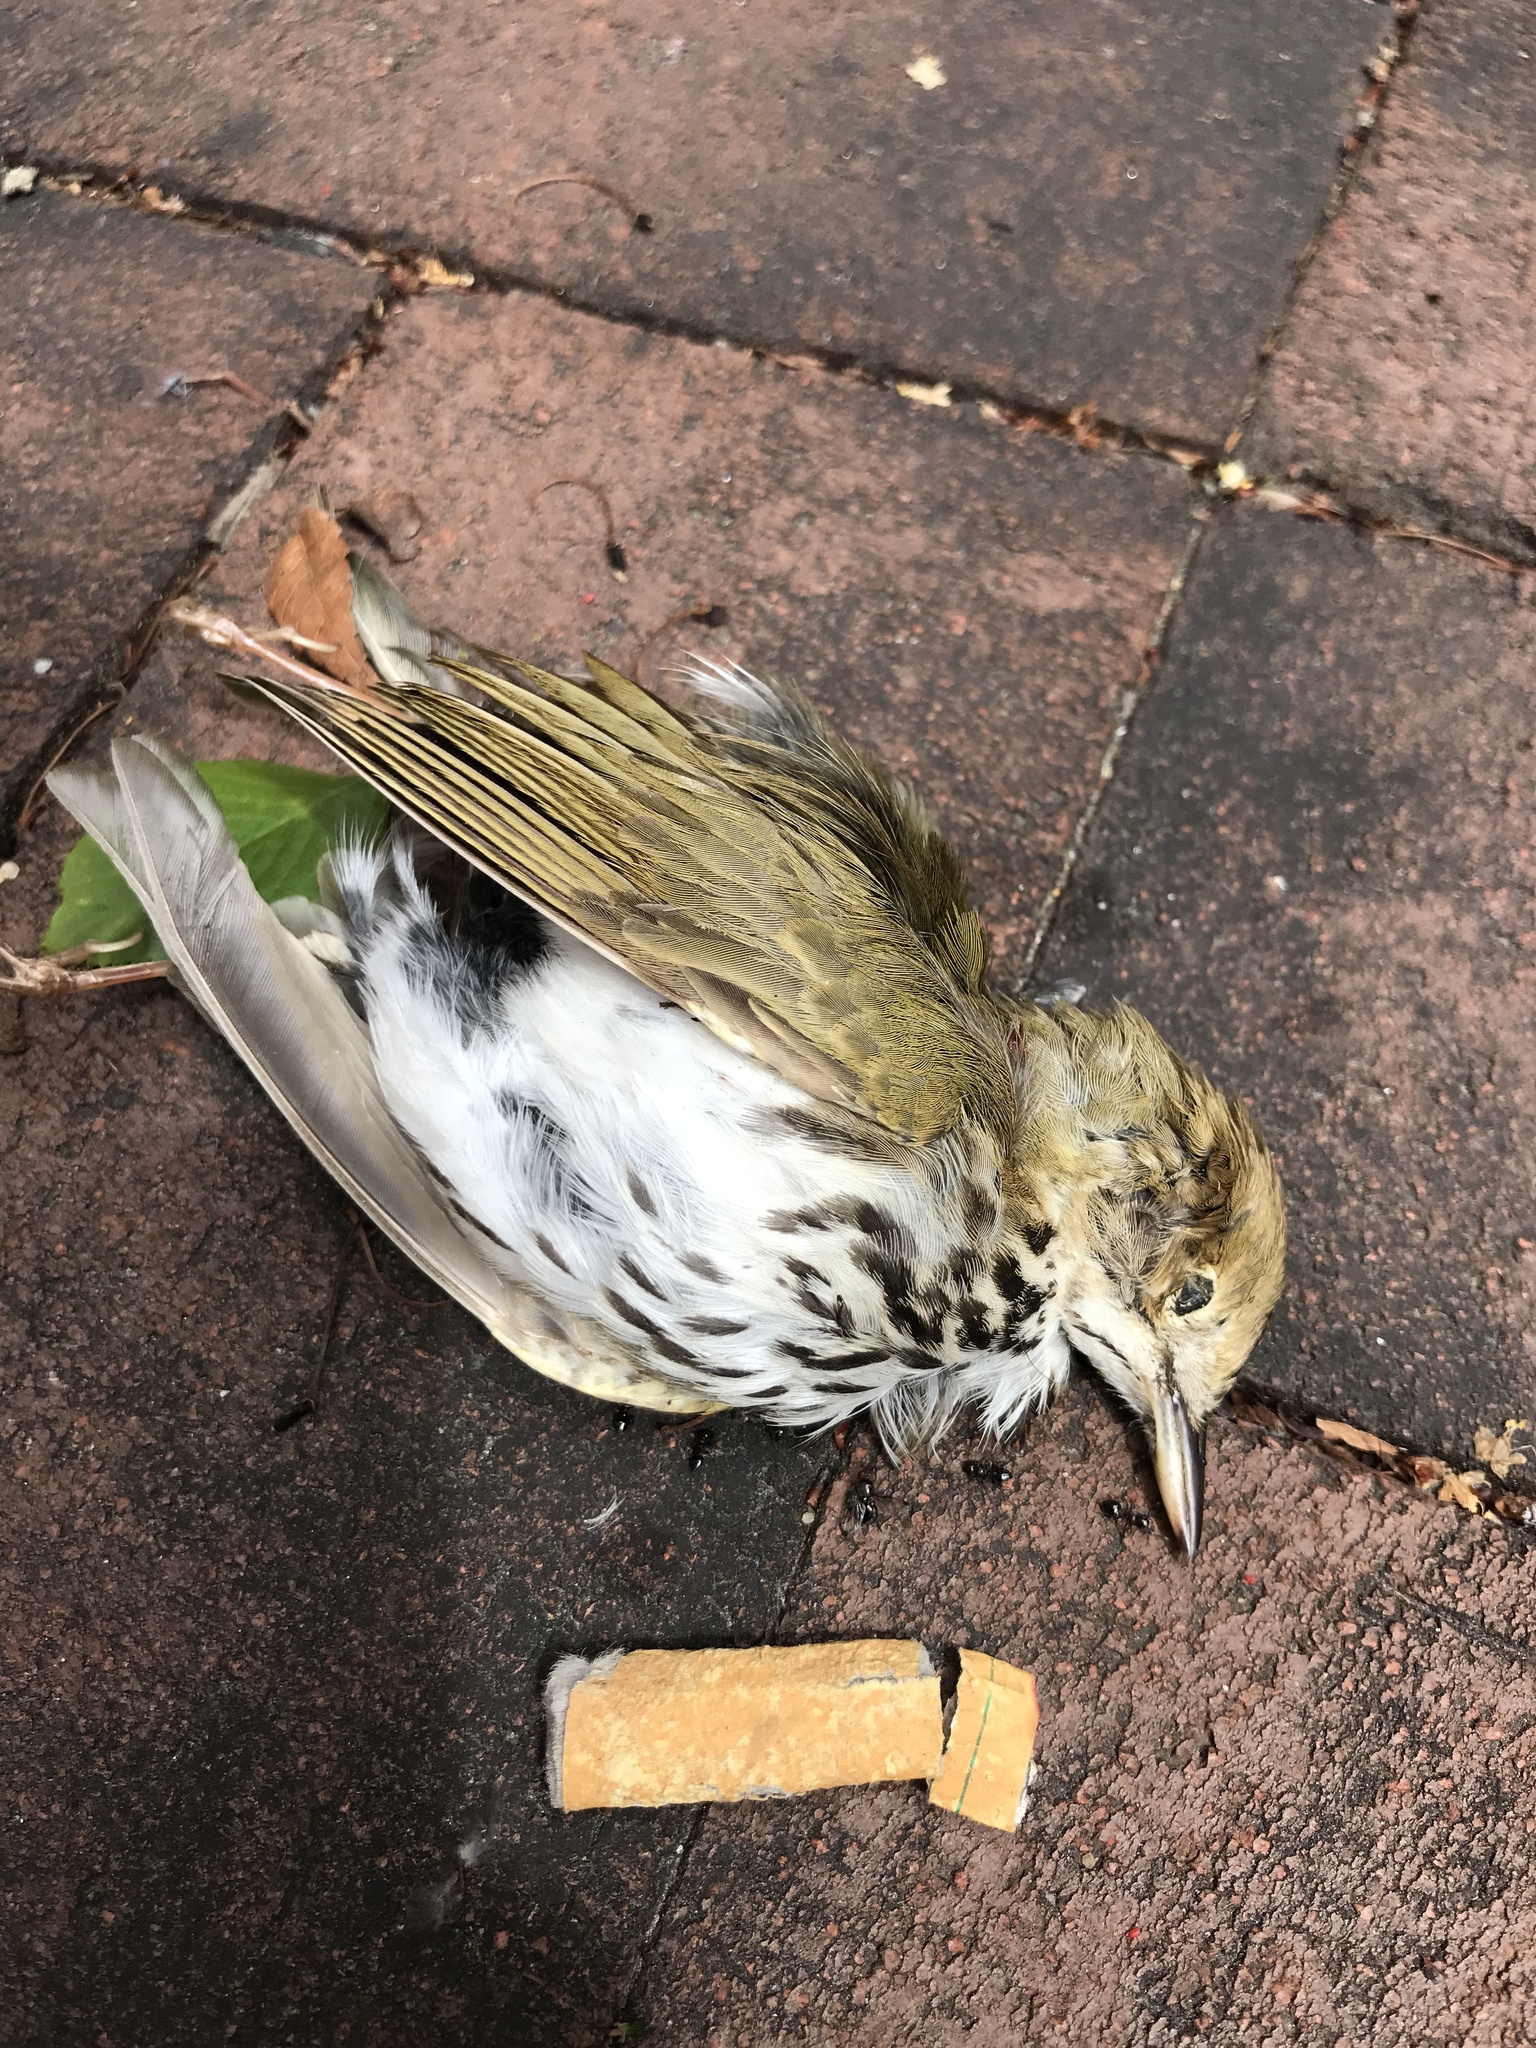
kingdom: Animalia
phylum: Chordata
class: Aves
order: Passeriformes
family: Parulidae
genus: Seiurus
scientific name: Seiurus aurocapilla
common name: Ovenbird
